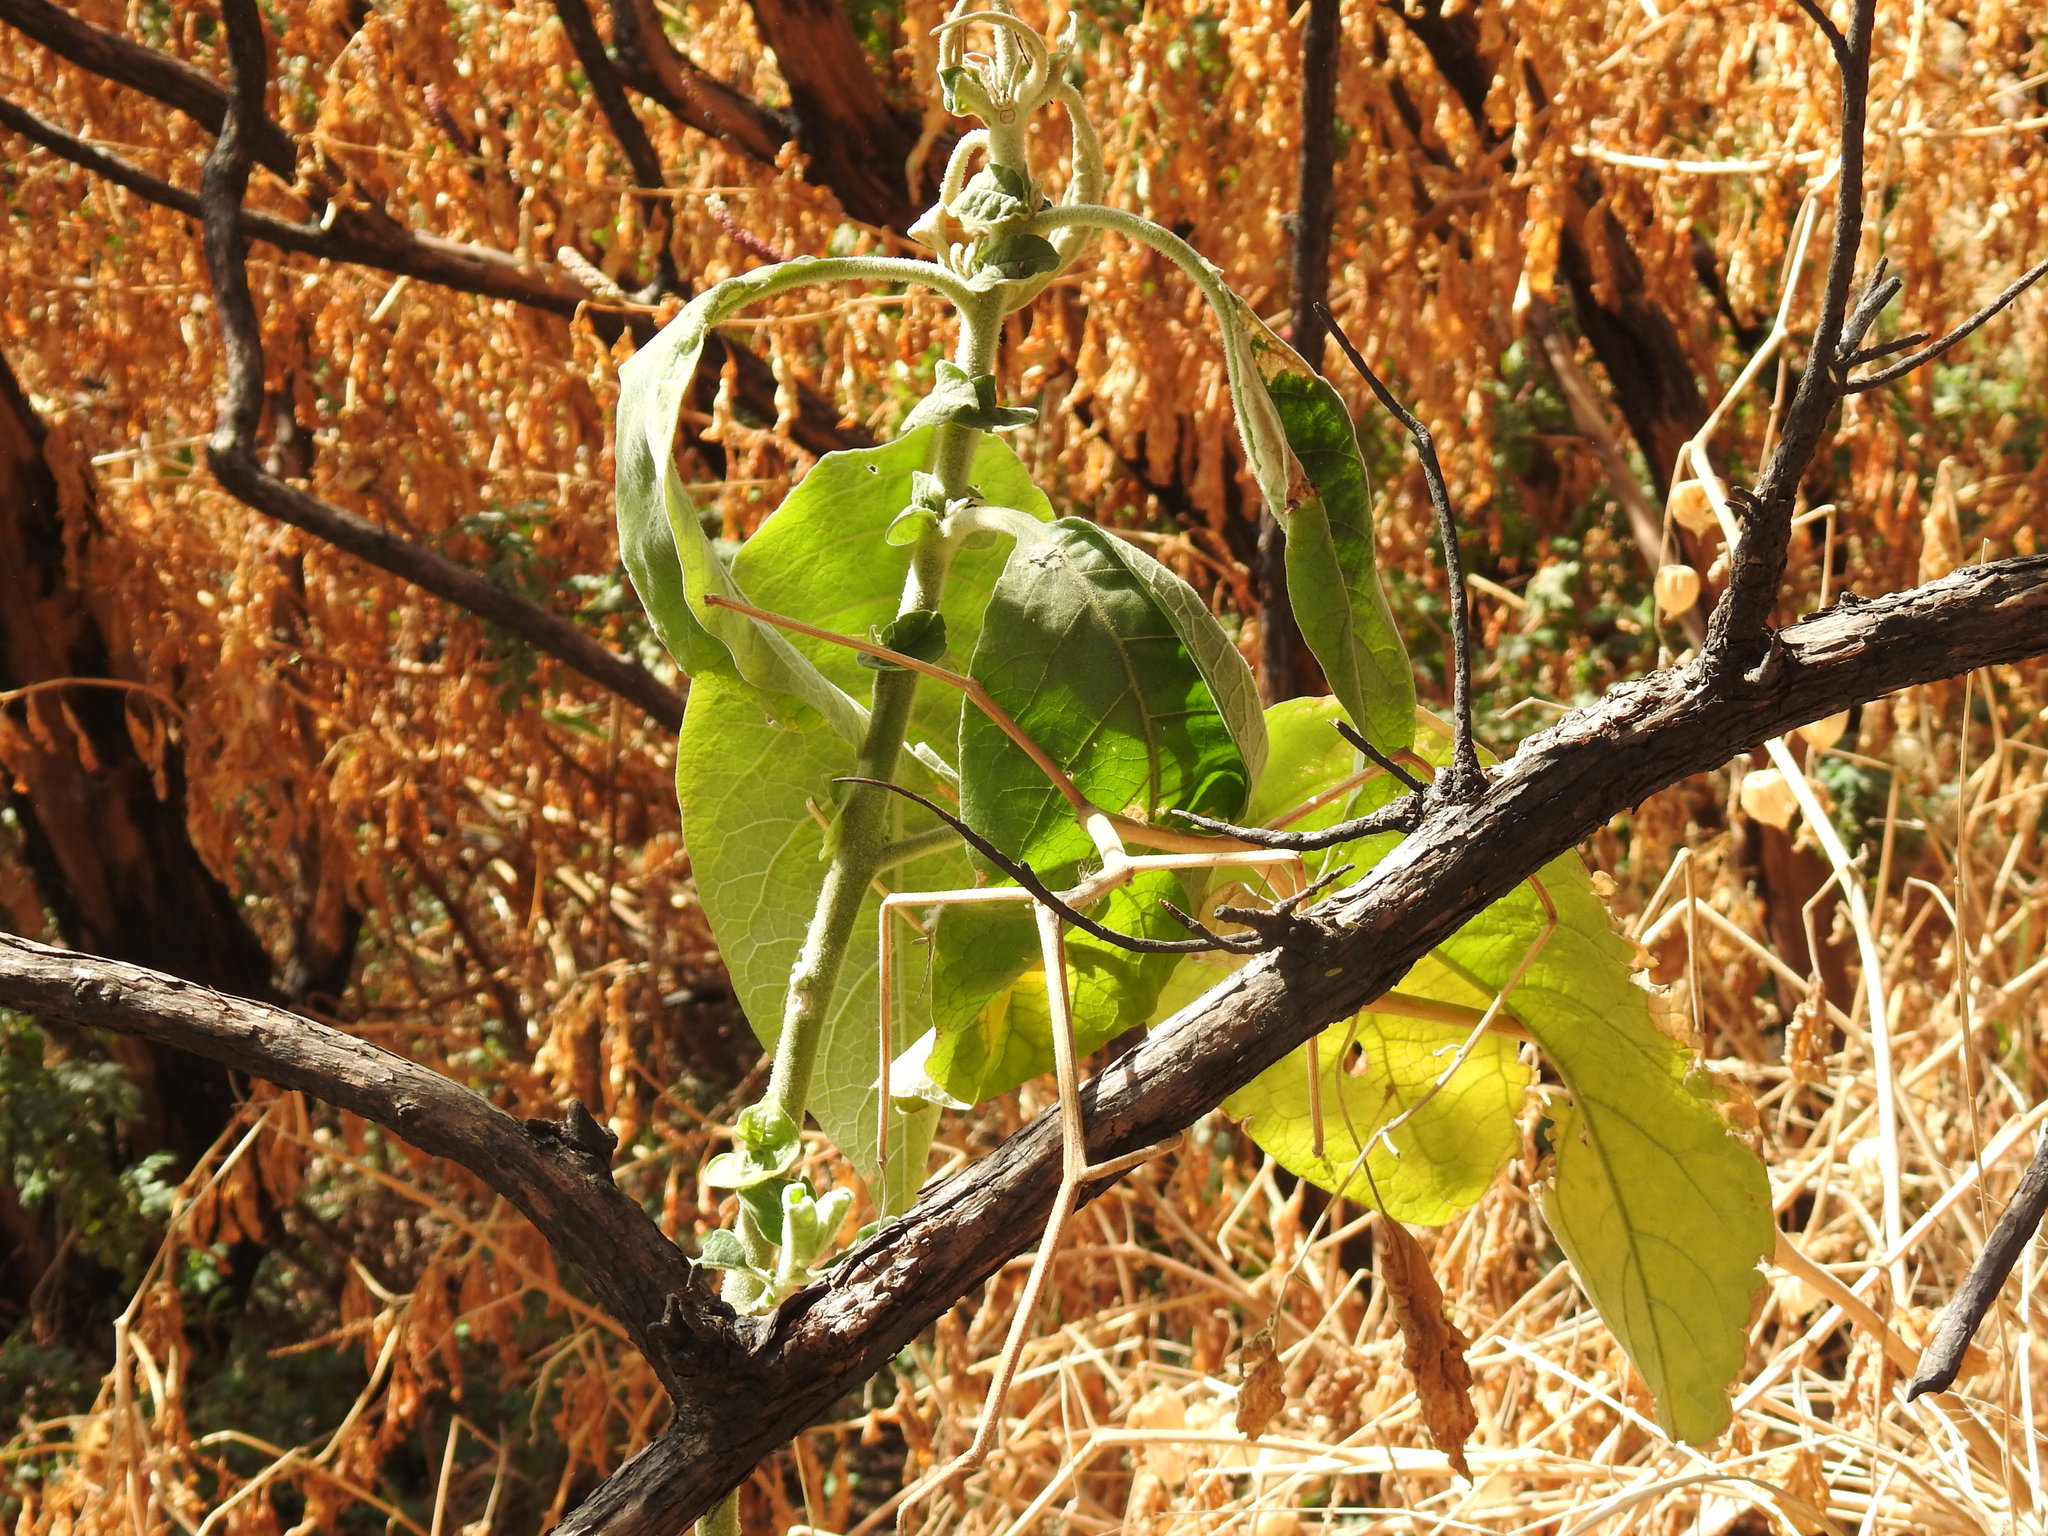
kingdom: Plantae
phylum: Tracheophyta
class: Magnoliopsida
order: Solanales
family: Solanaceae
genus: Solanum
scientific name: Solanum mauritianum
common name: Earleaf nightshade
